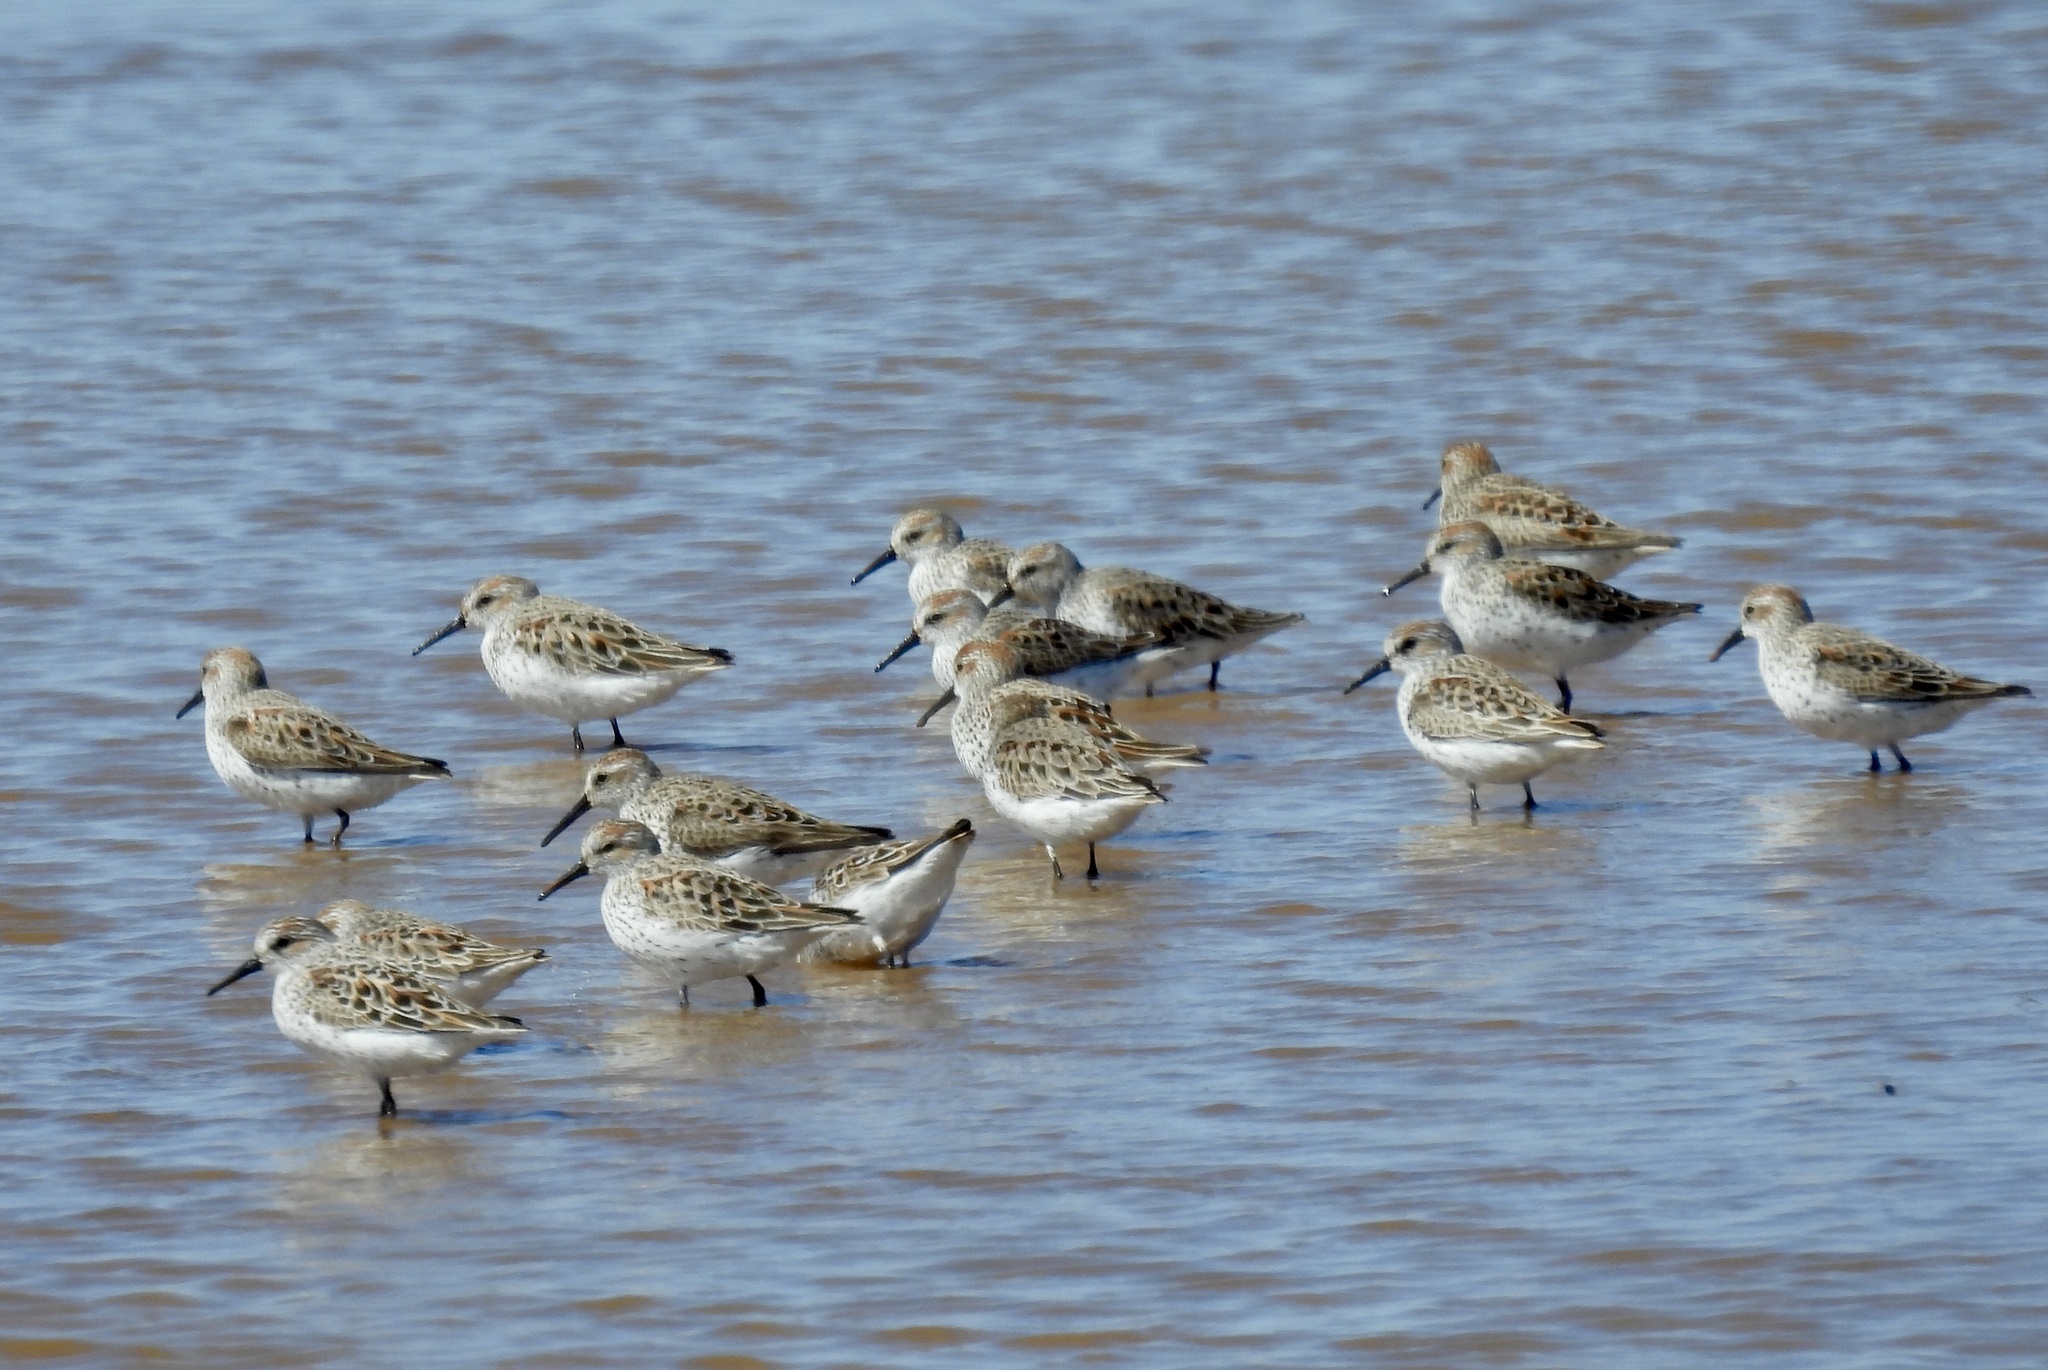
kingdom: Animalia
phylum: Chordata
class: Aves
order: Charadriiformes
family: Scolopacidae
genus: Calidris
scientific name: Calidris mauri
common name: Western sandpiper
